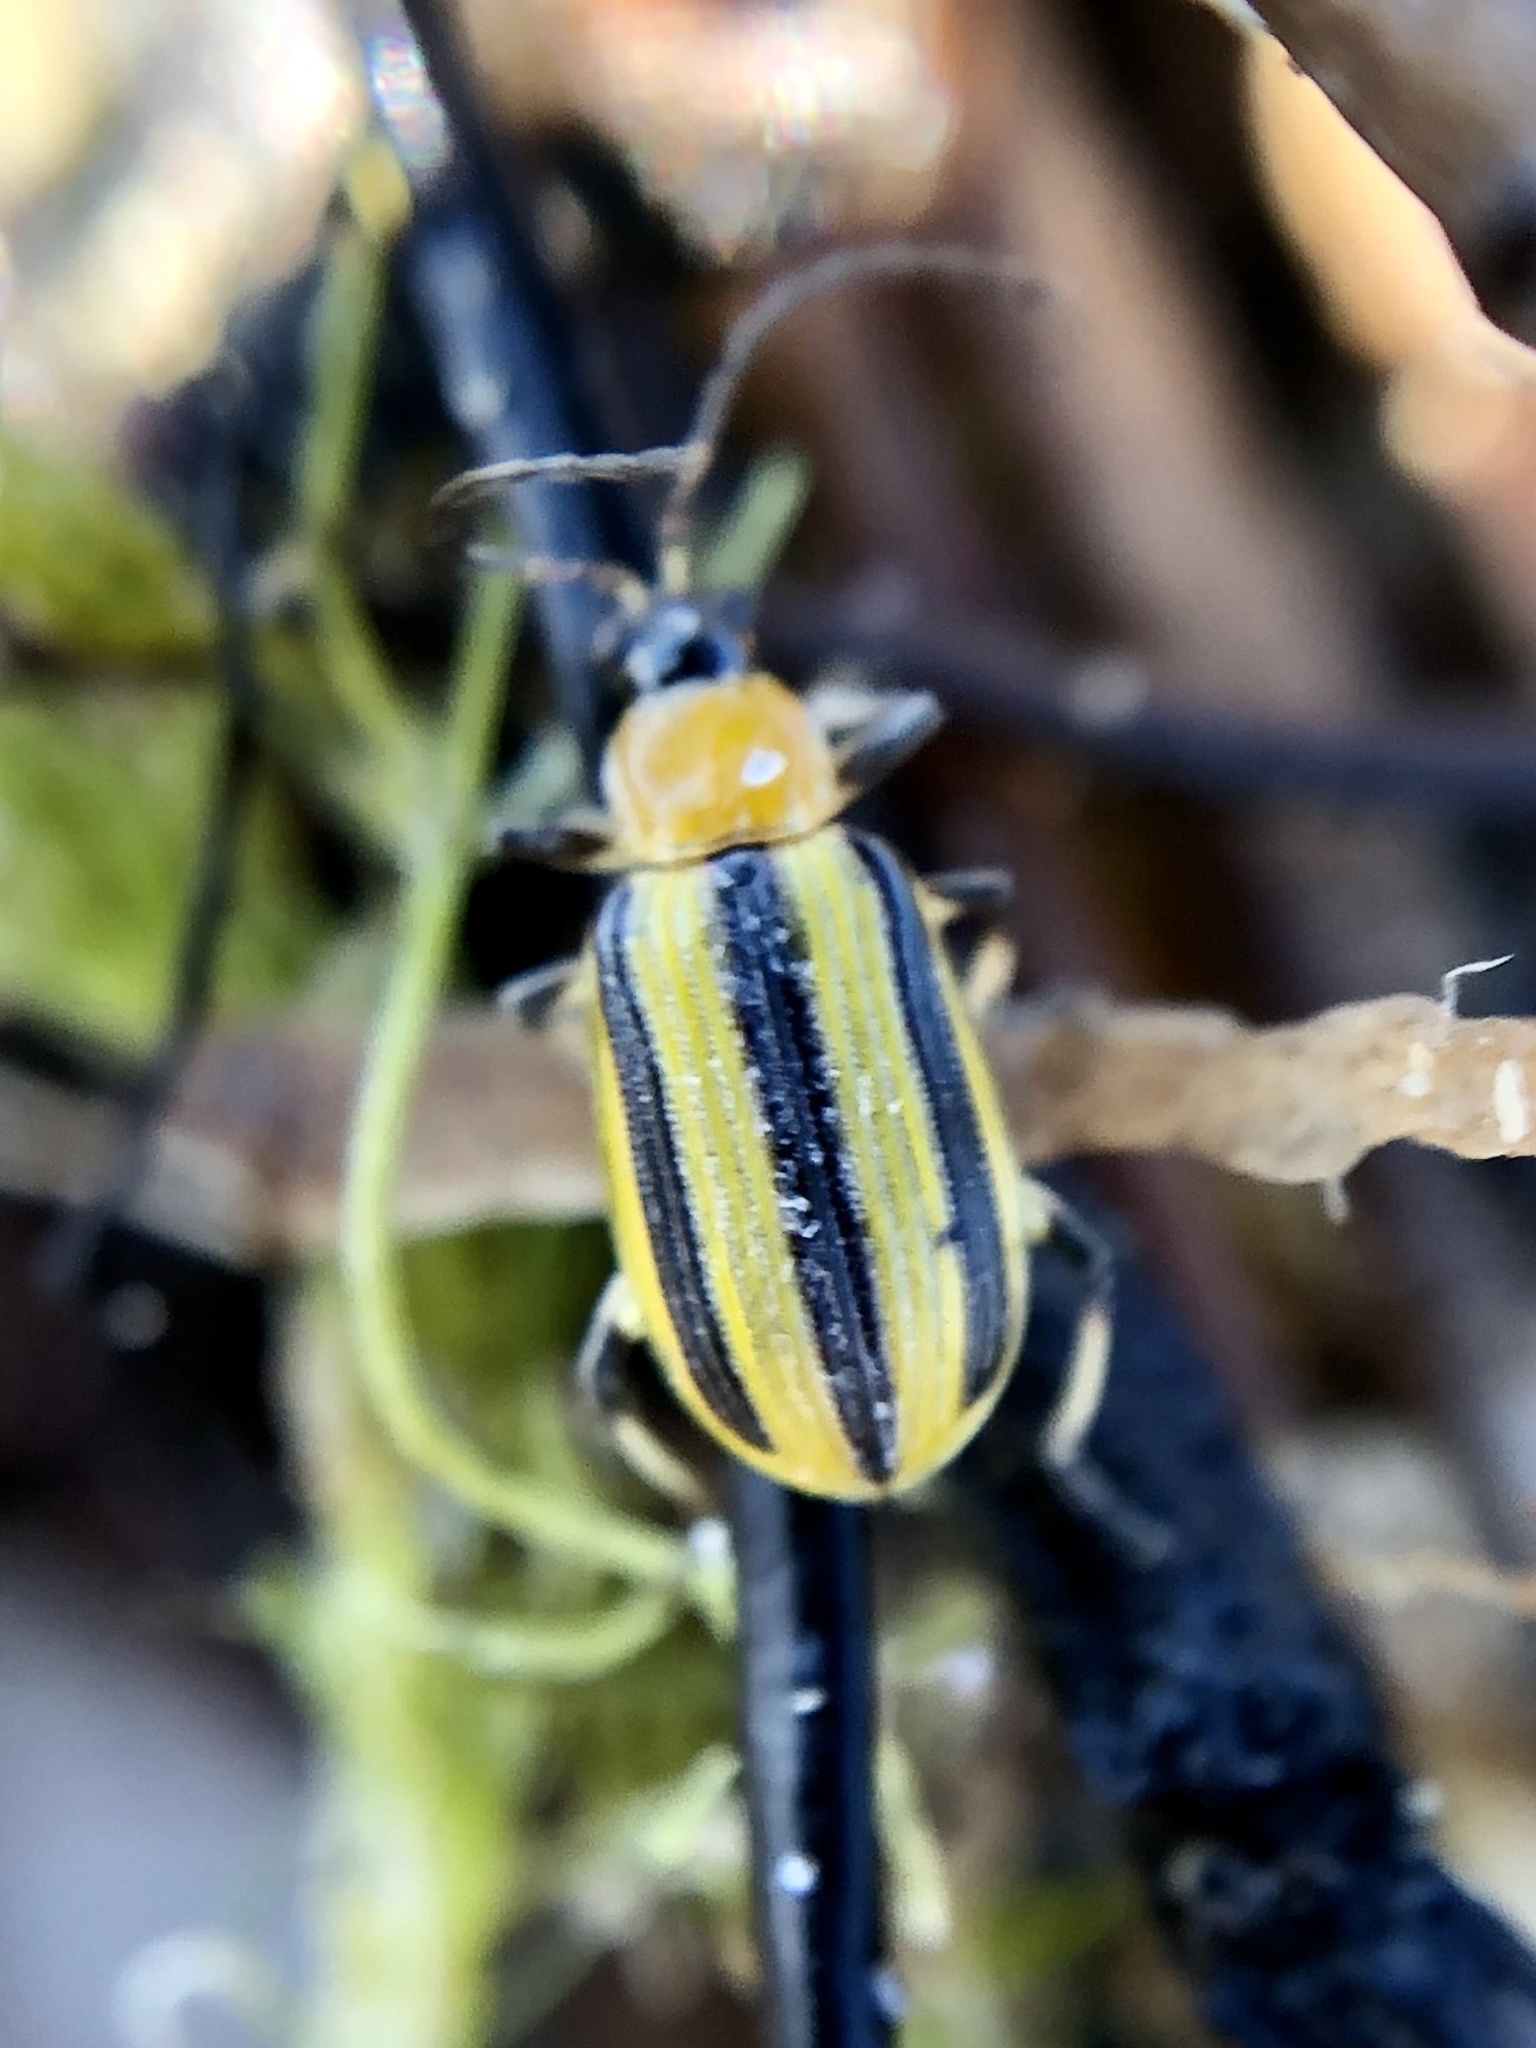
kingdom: Animalia
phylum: Arthropoda
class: Insecta
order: Coleoptera
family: Chrysomelidae
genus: Acalymma
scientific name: Acalymma vittatum
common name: Striped cucumber beetle
